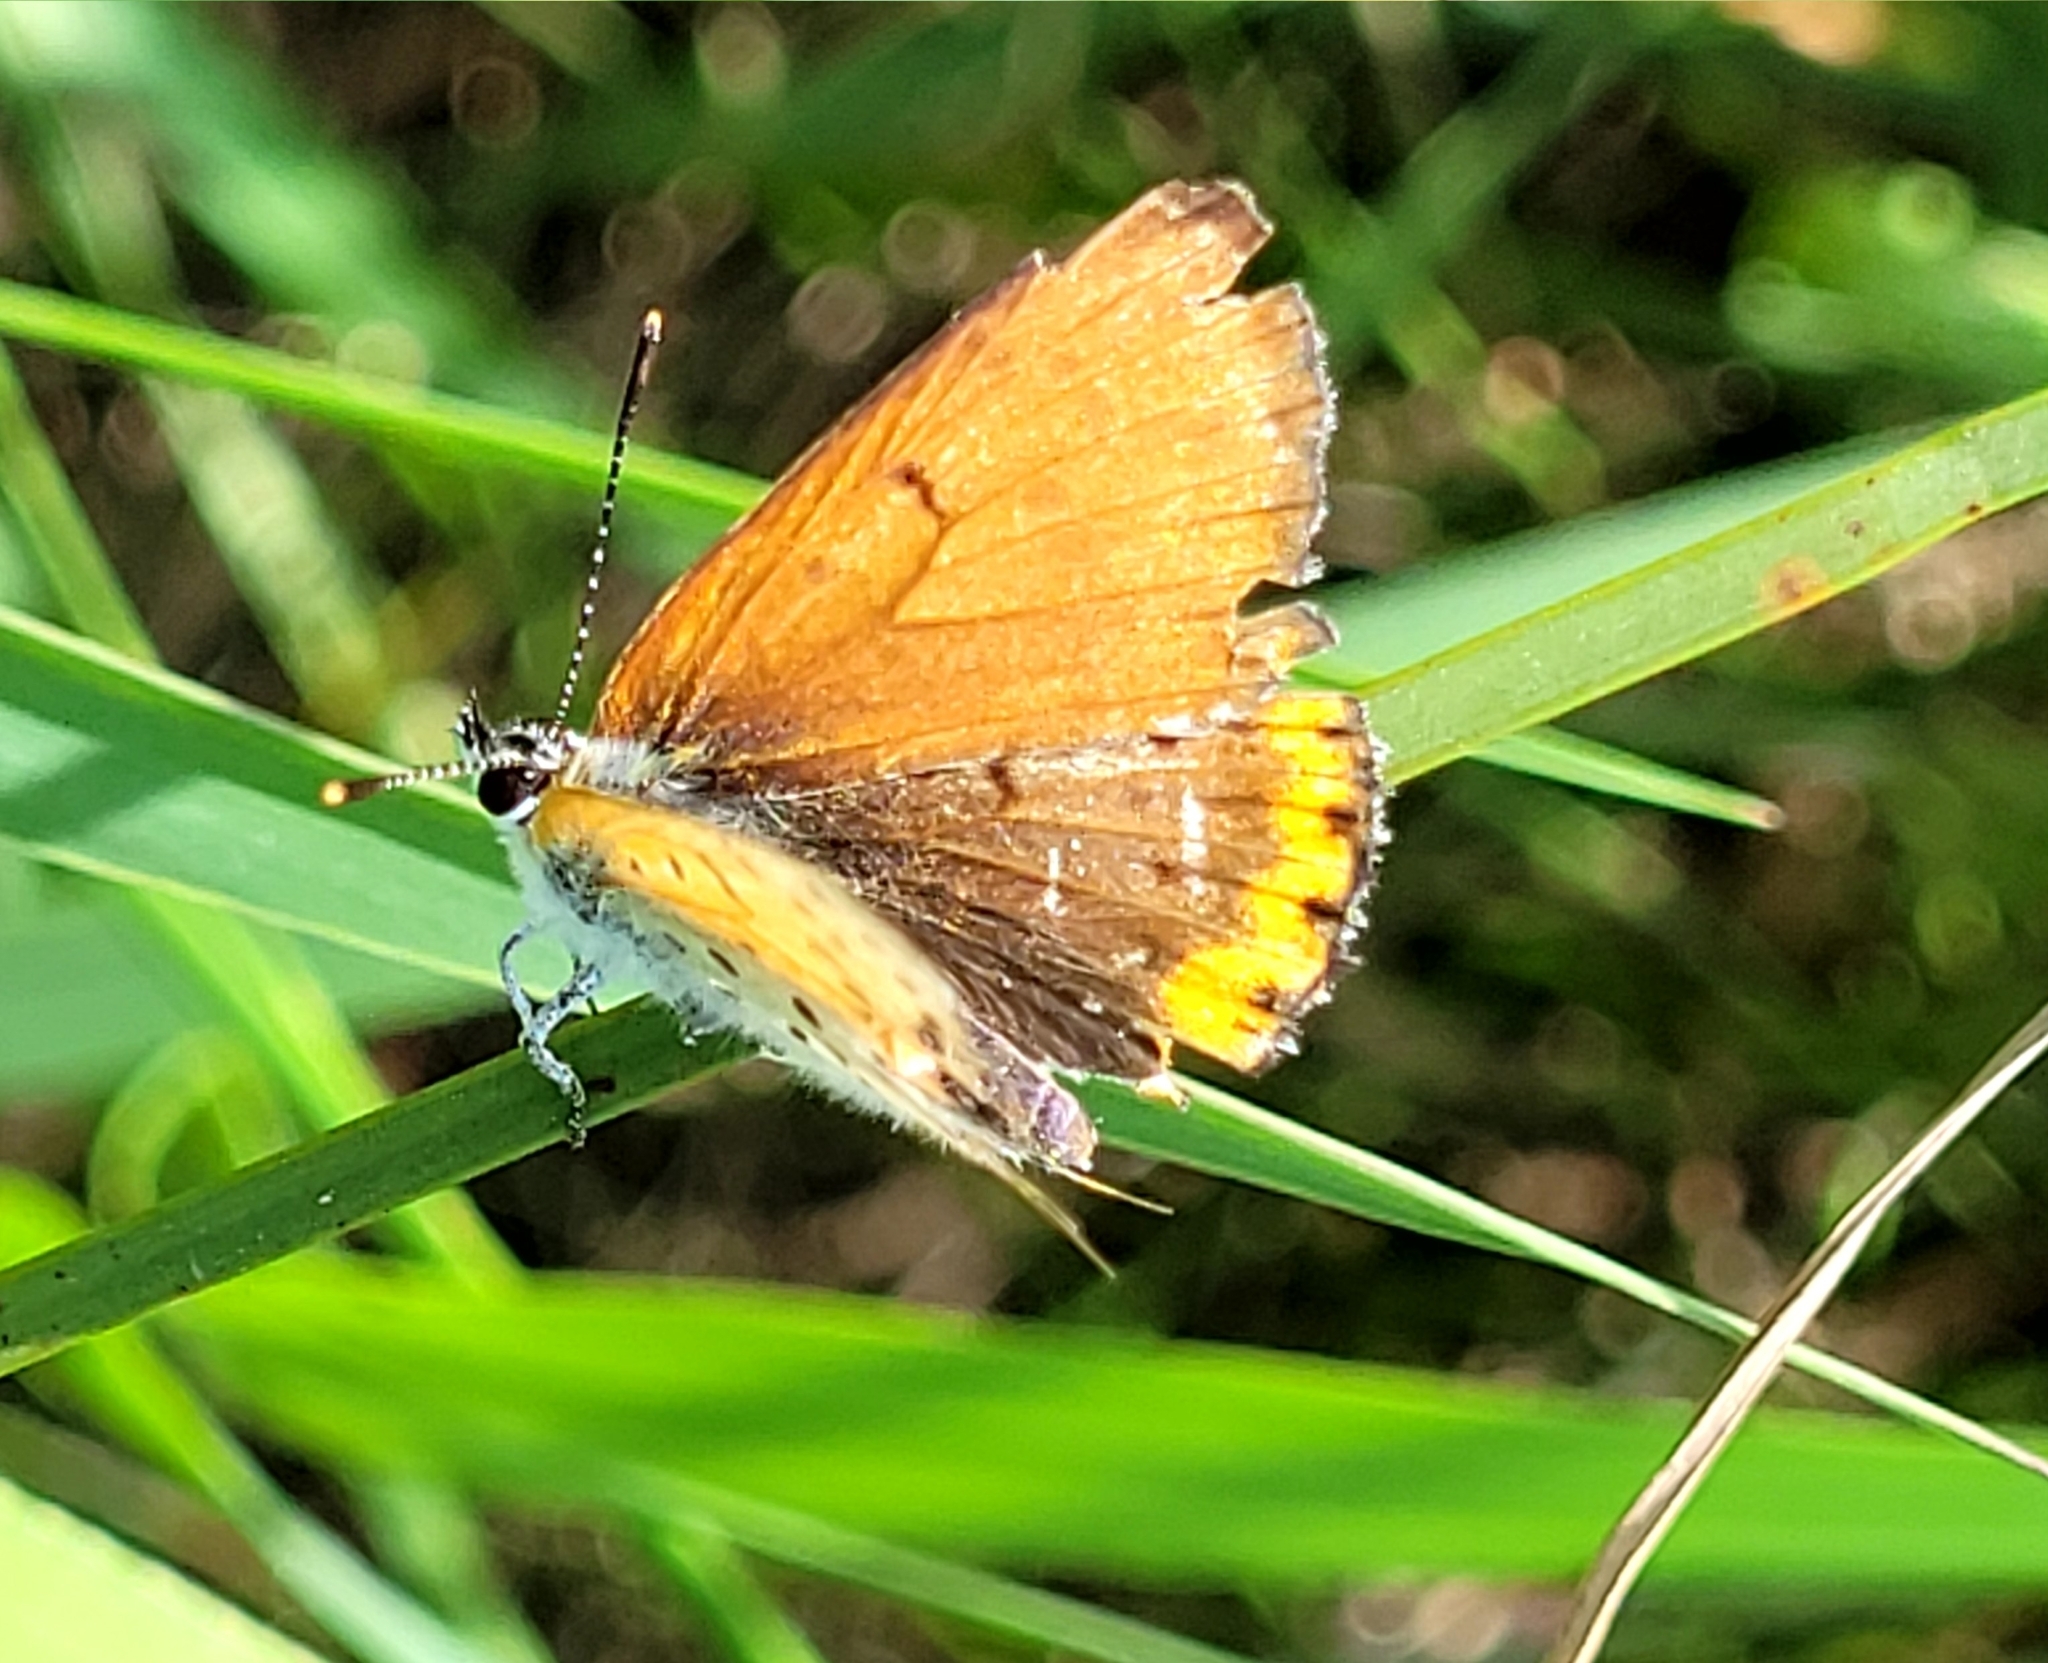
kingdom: Animalia
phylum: Arthropoda
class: Insecta
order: Lepidoptera
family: Lycaenidae
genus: Tharsalea
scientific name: Tharsalea hyllus
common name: Bronze copper
